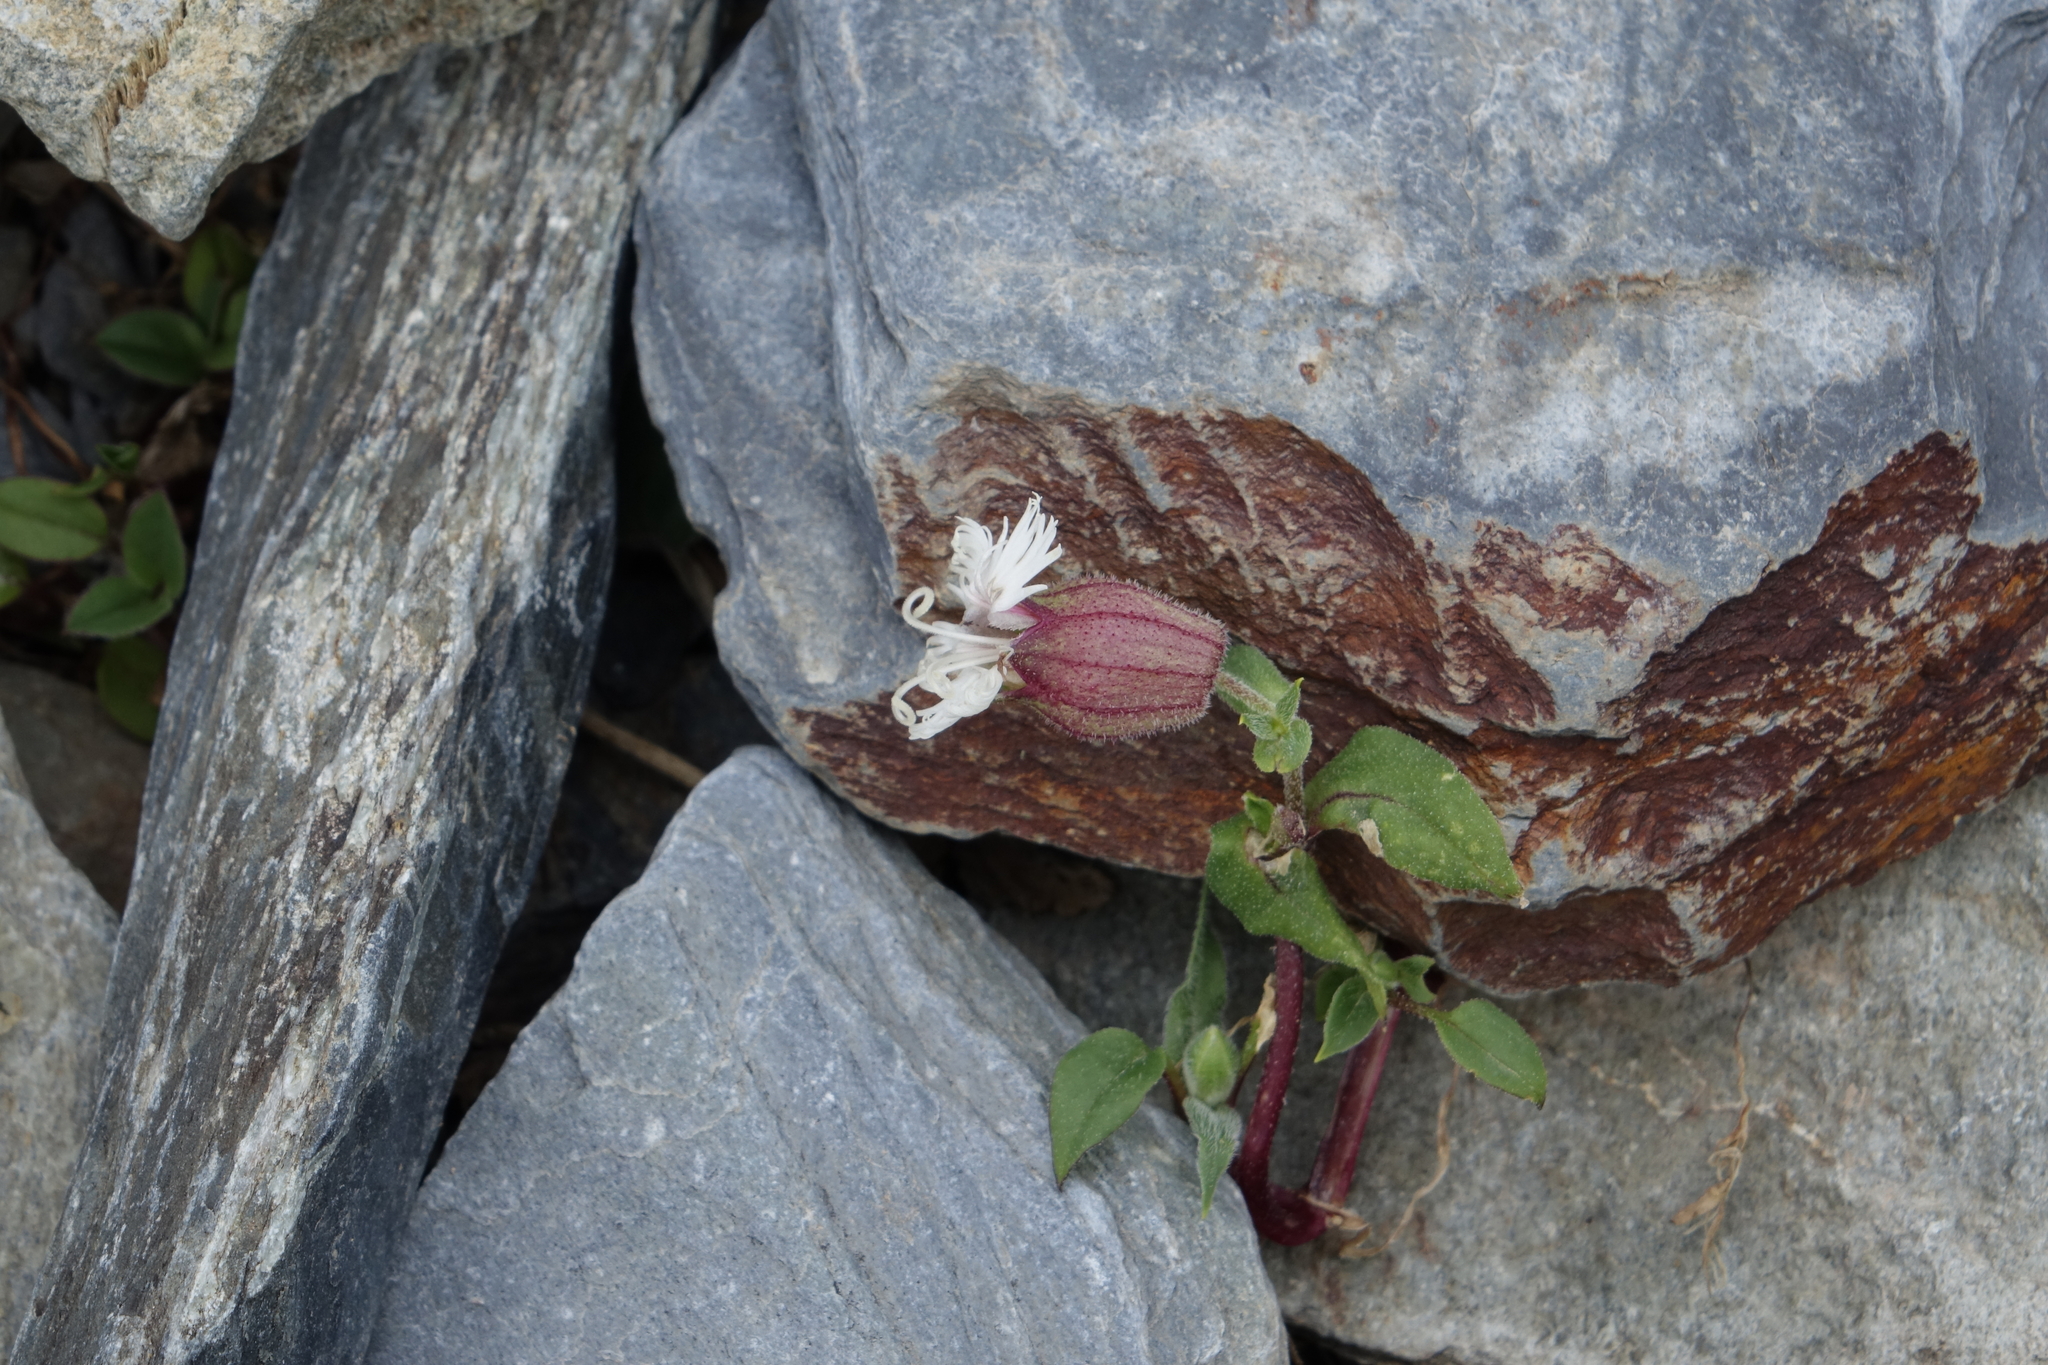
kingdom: Plantae
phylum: Tracheophyta
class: Magnoliopsida
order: Caryophyllales
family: Caryophyllaceae
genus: Silene
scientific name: Silene lacera
